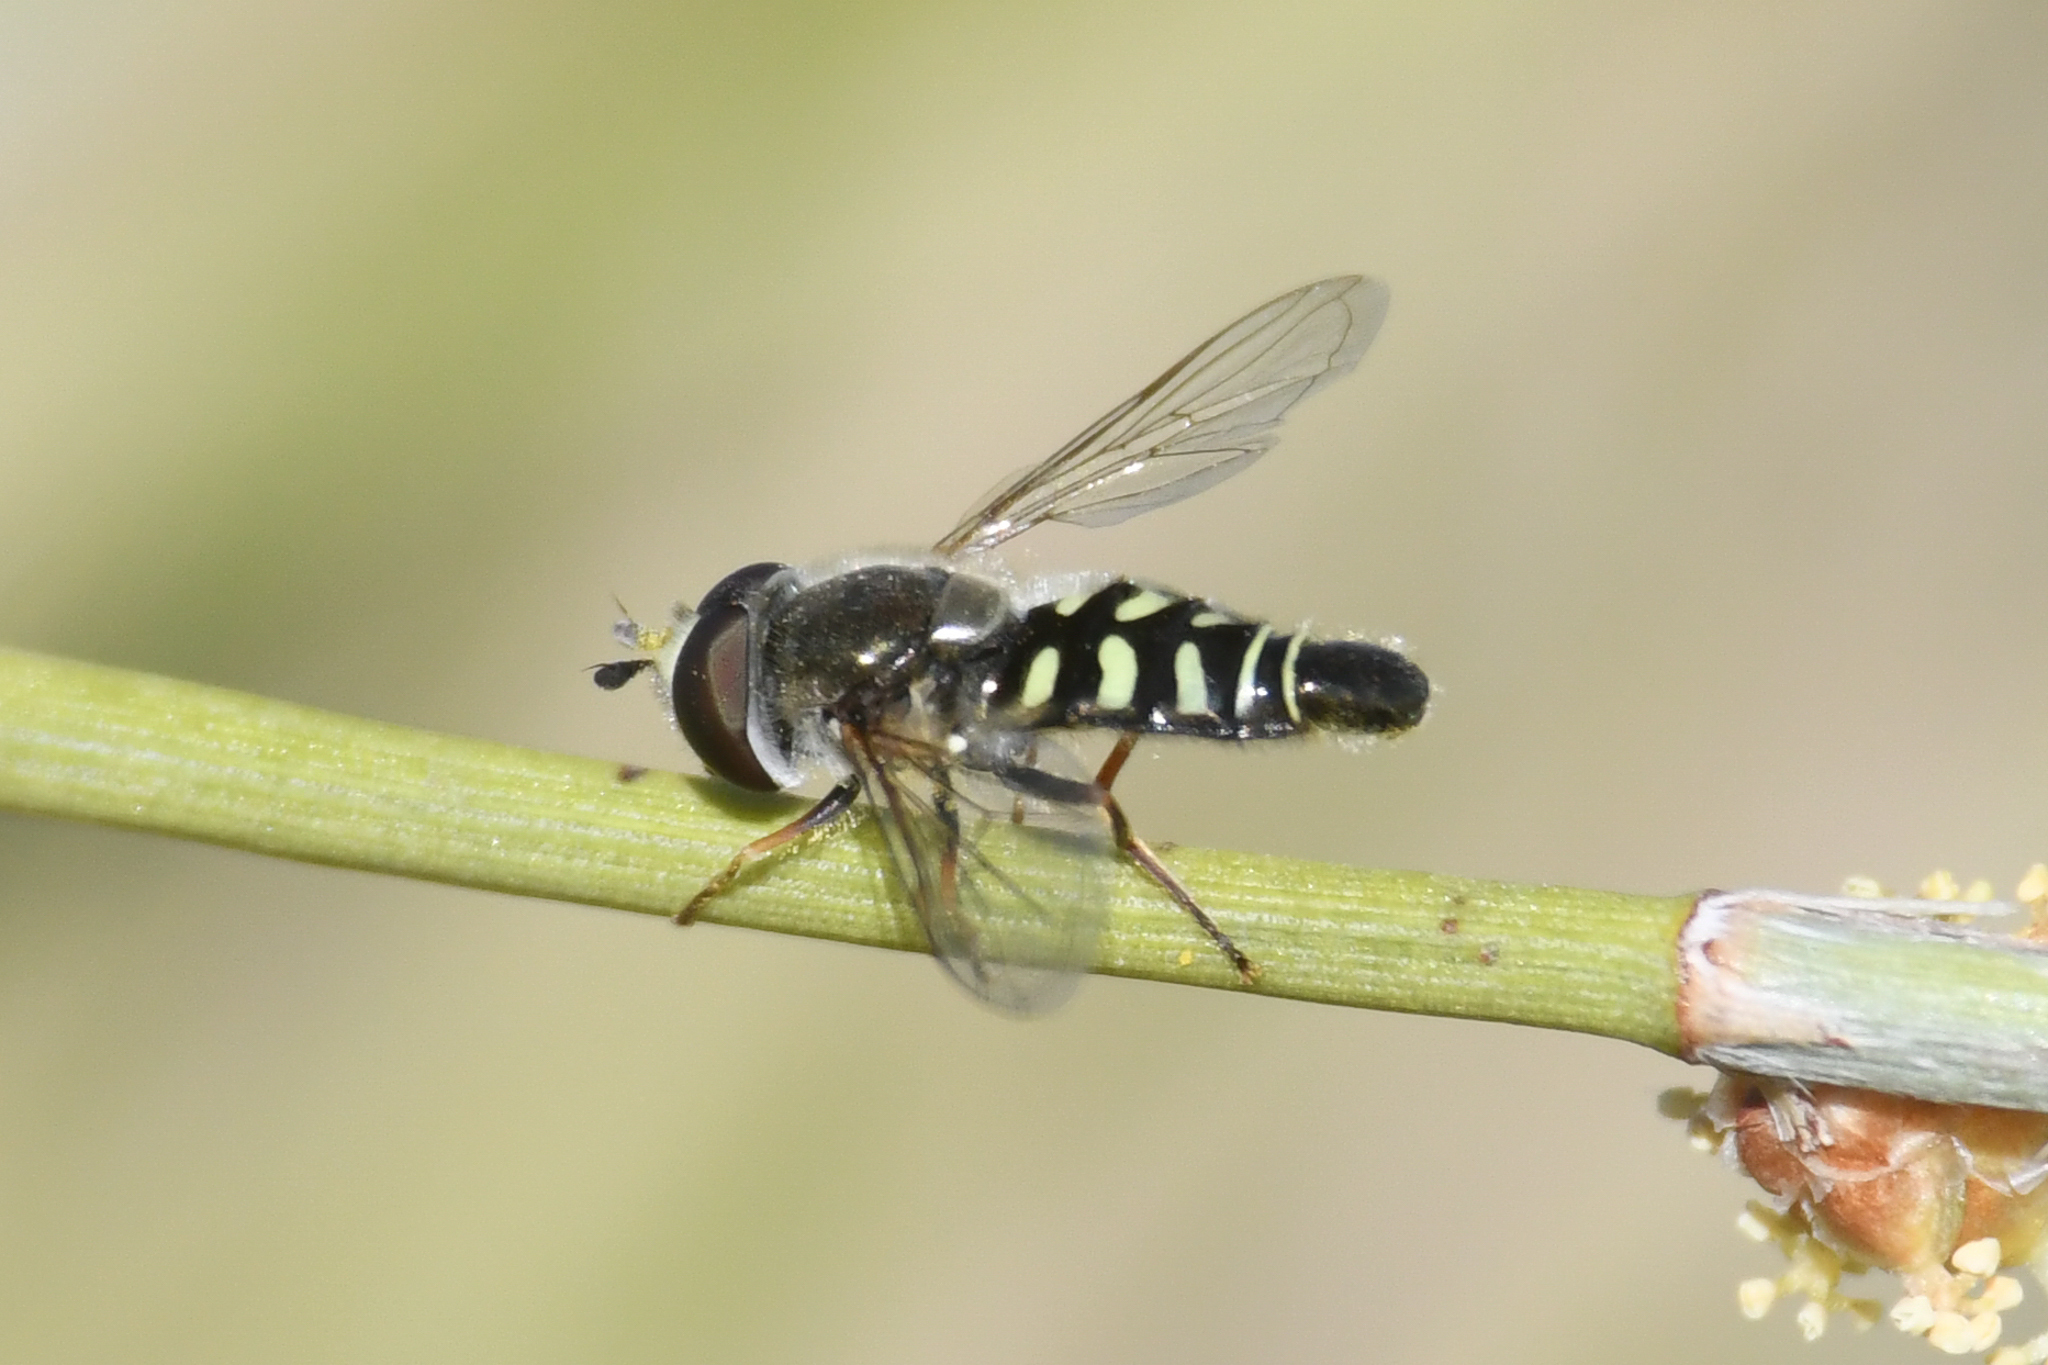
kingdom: Animalia
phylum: Arthropoda
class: Insecta
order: Diptera
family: Syrphidae
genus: Eupeodes
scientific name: Eupeodes volucris
